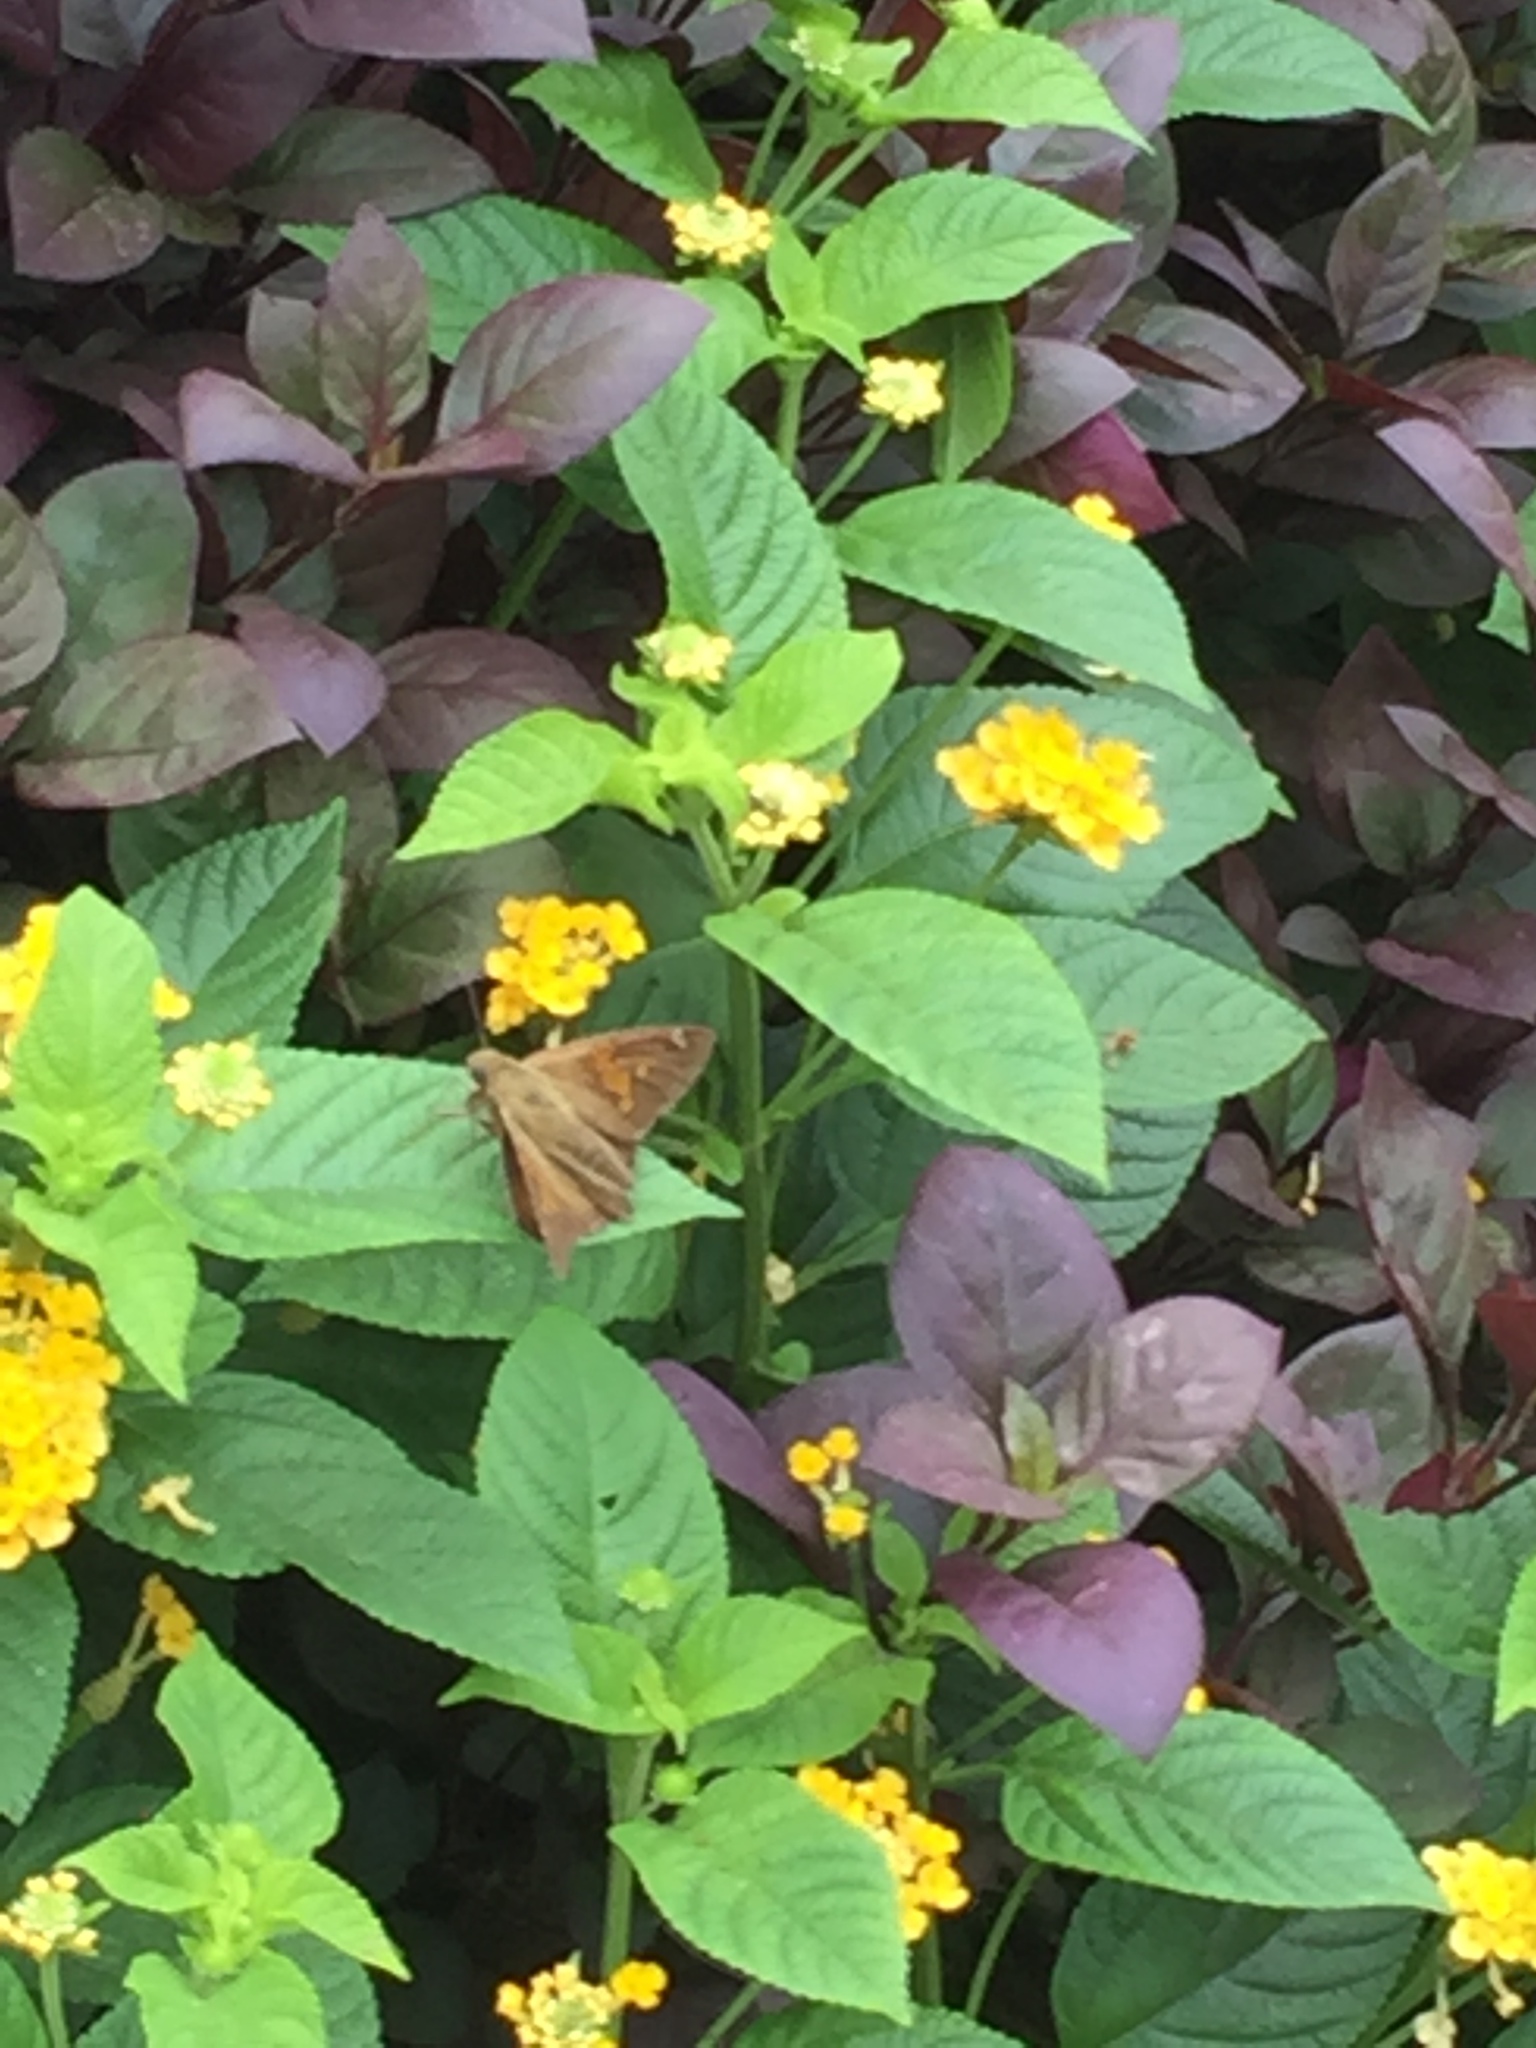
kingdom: Animalia
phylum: Arthropoda
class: Insecta
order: Lepidoptera
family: Hesperiidae
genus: Epargyreus
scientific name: Epargyreus clarus
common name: Silver-spotted skipper
